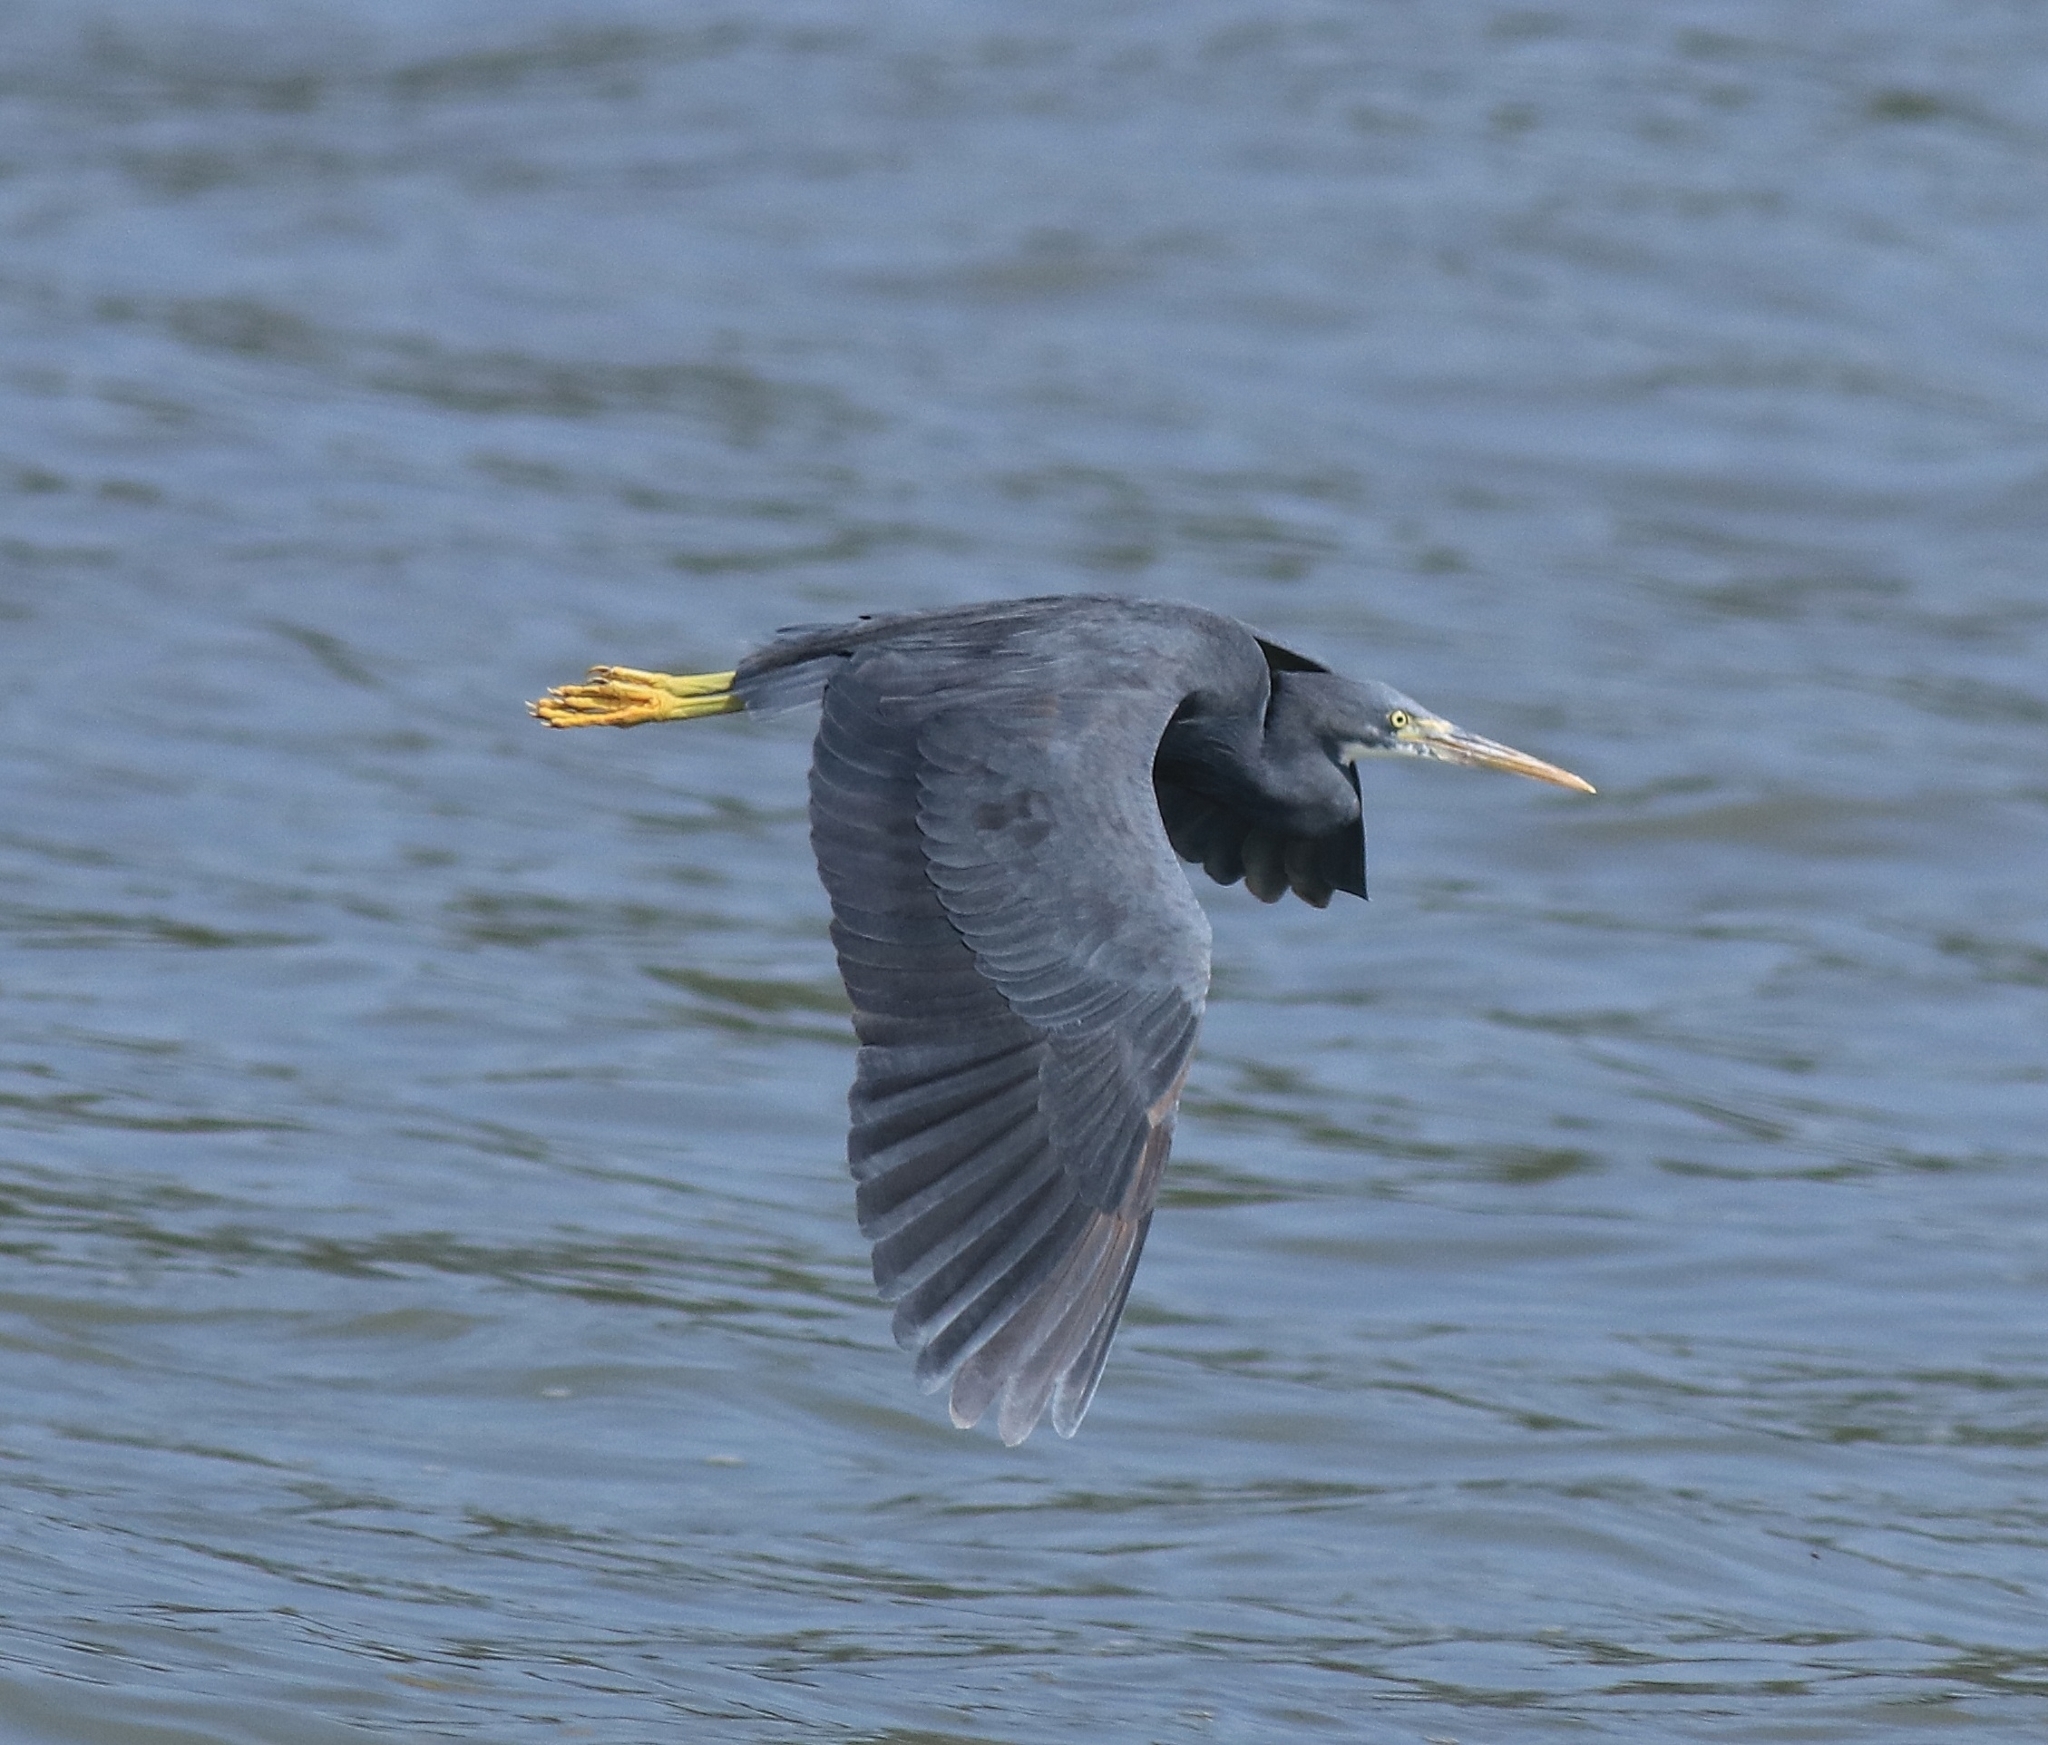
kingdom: Animalia
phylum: Chordata
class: Aves
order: Pelecaniformes
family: Ardeidae
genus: Egretta
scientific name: Egretta gularis
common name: Western reef-heron
